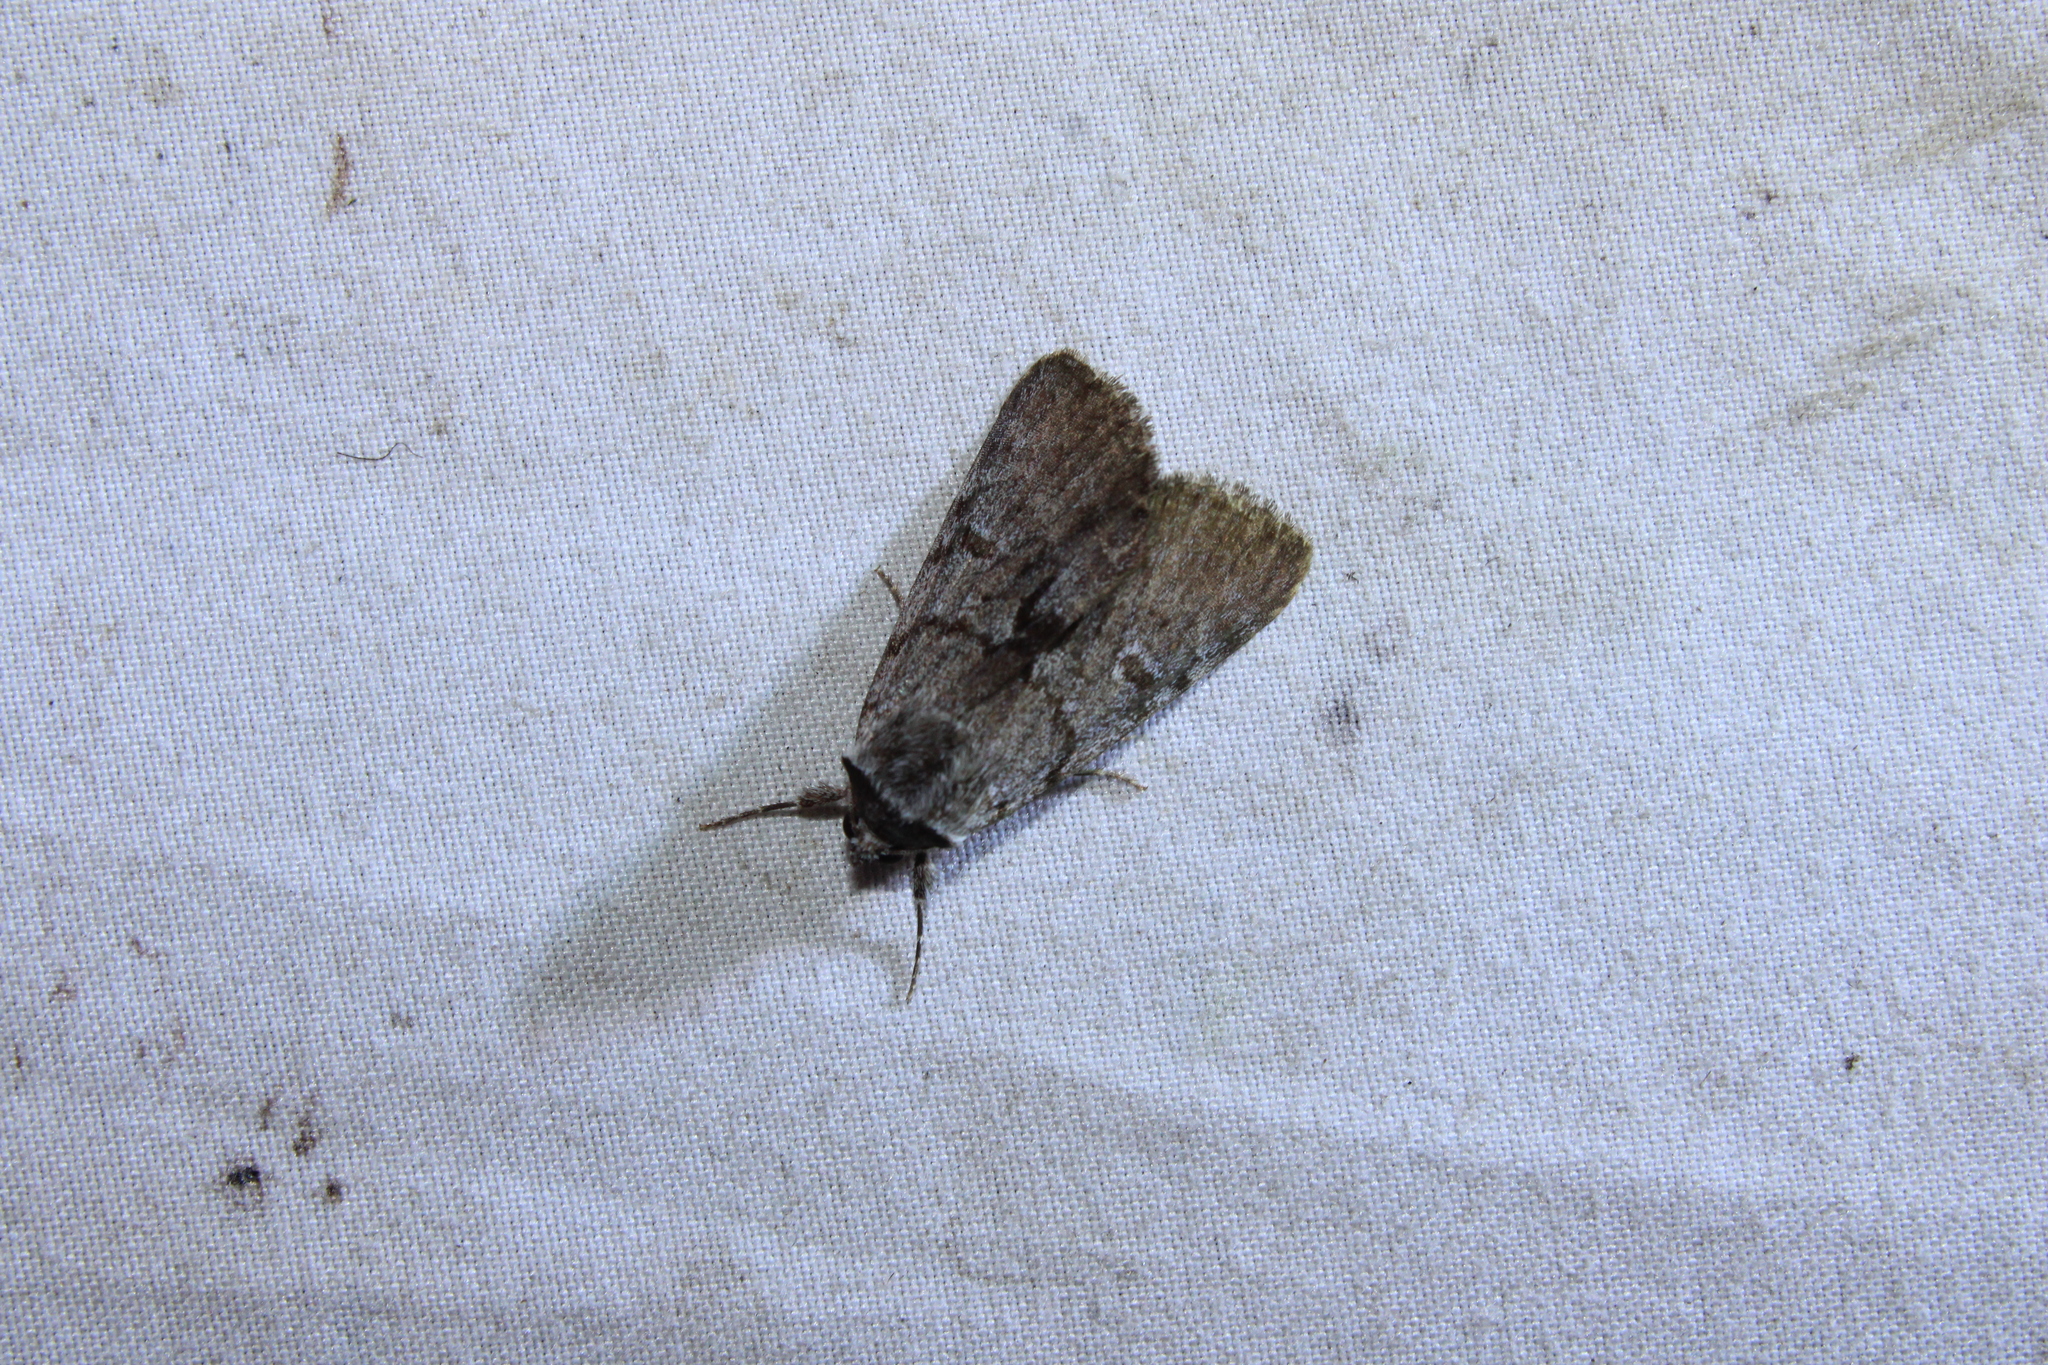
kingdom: Animalia
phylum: Arthropoda
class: Insecta
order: Lepidoptera
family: Erebidae
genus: Catocala
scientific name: Catocala sordida
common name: Sordid underwing
